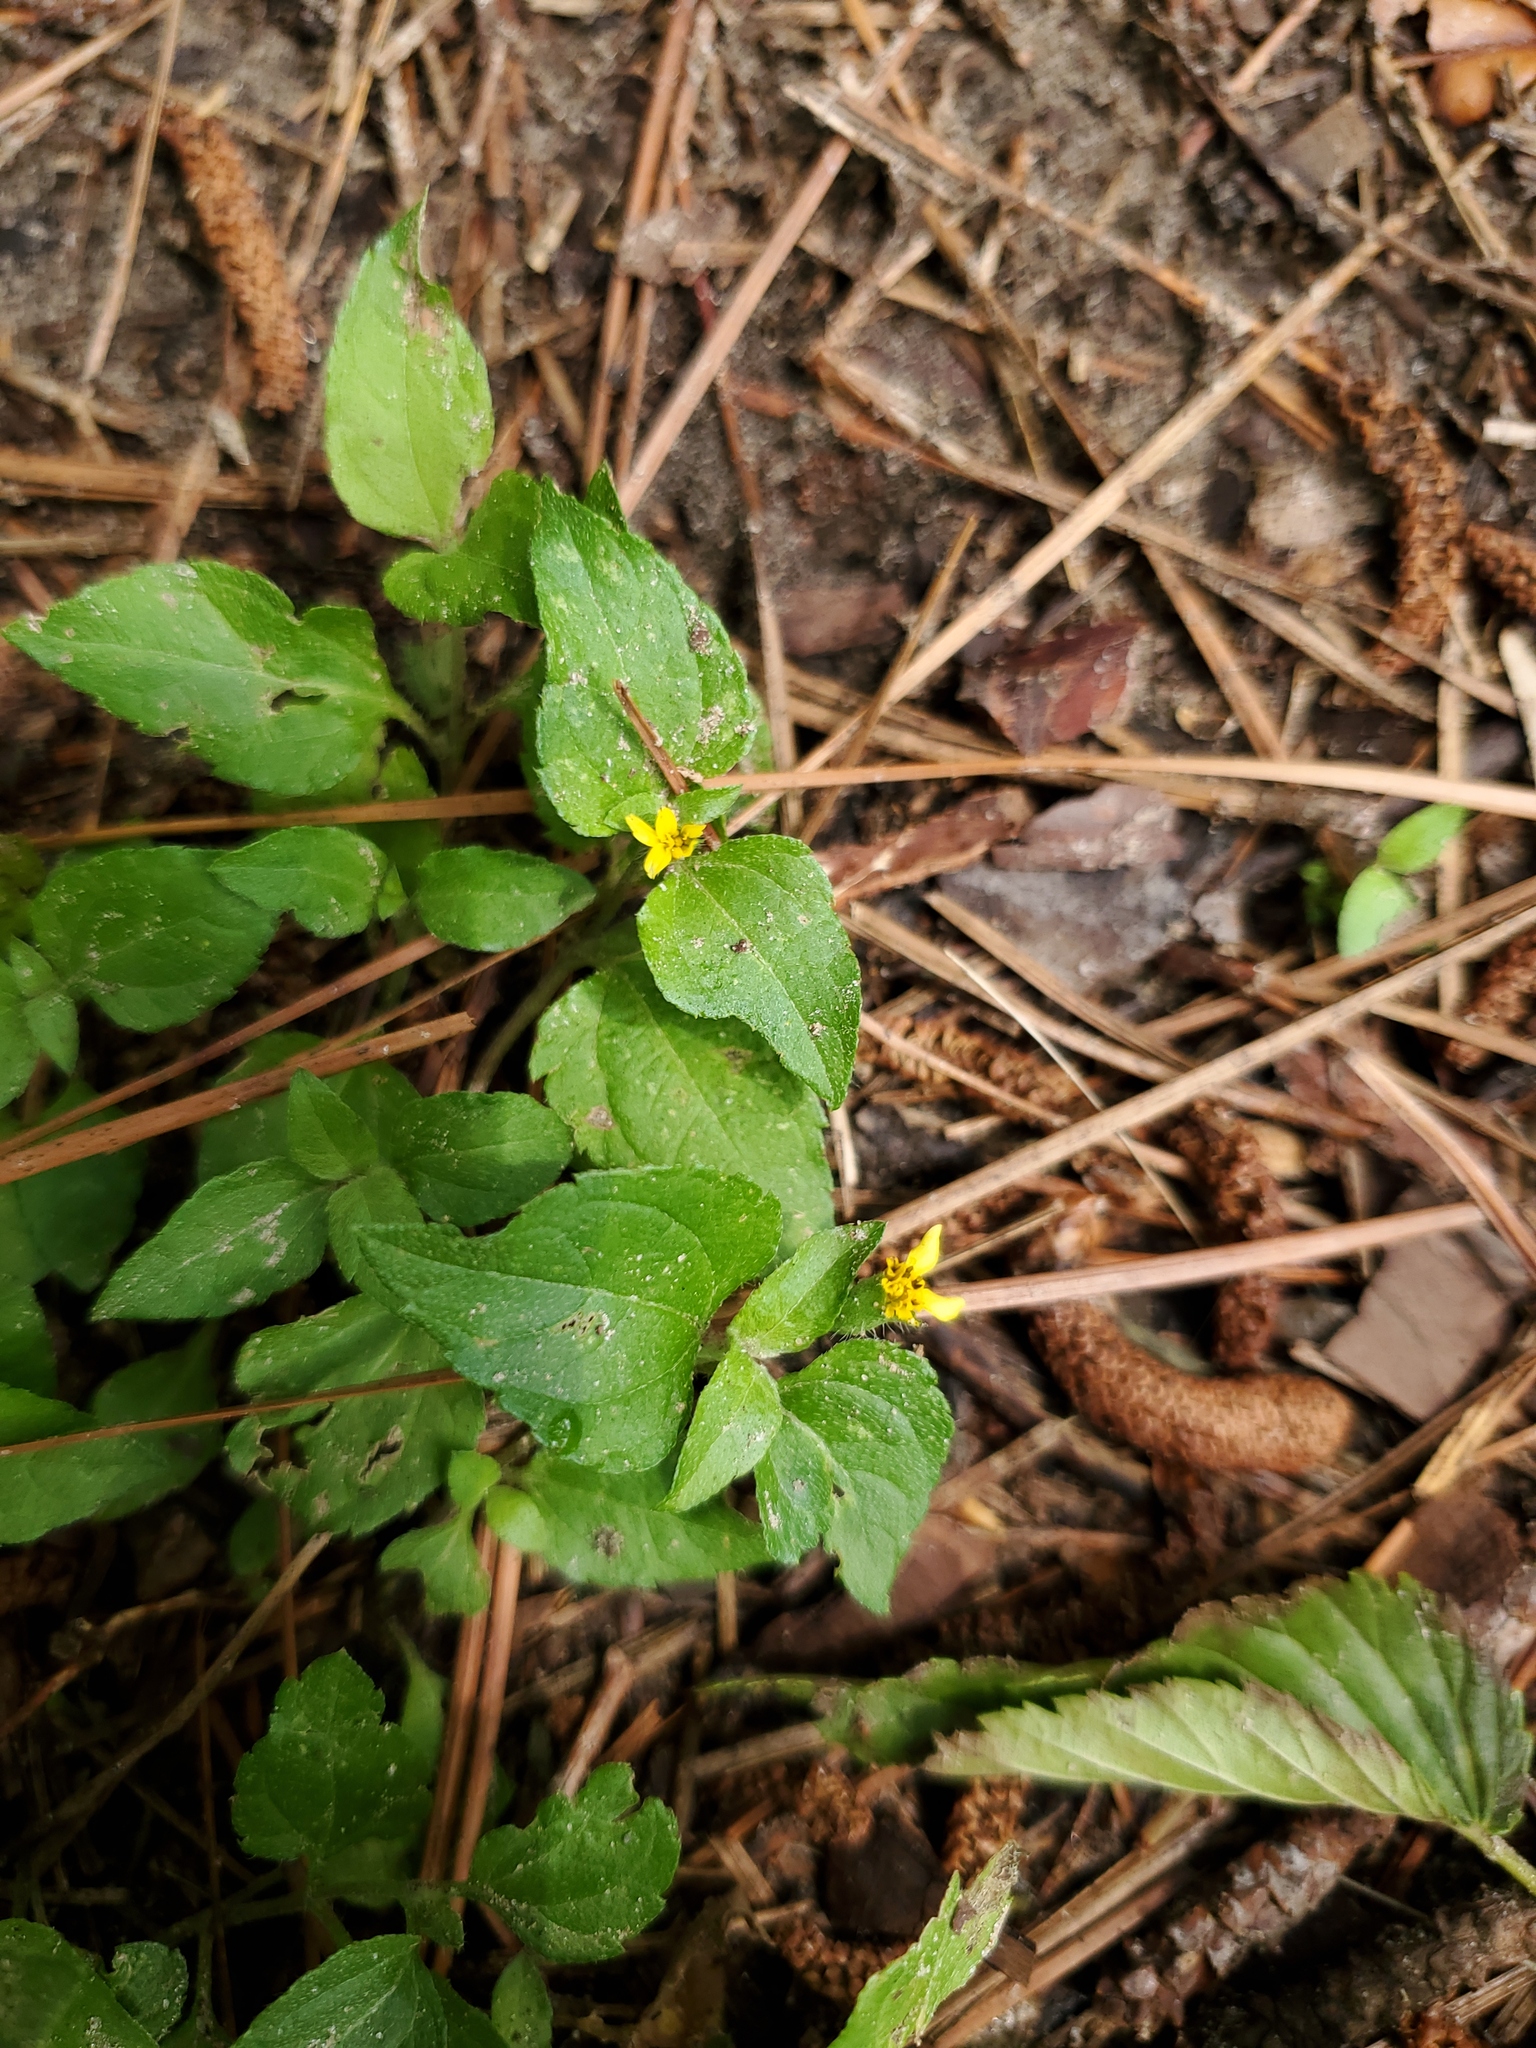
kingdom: Plantae
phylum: Tracheophyta
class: Magnoliopsida
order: Asterales
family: Asteraceae
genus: Calyptocarpus
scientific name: Calyptocarpus vialis
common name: Straggler daisy
